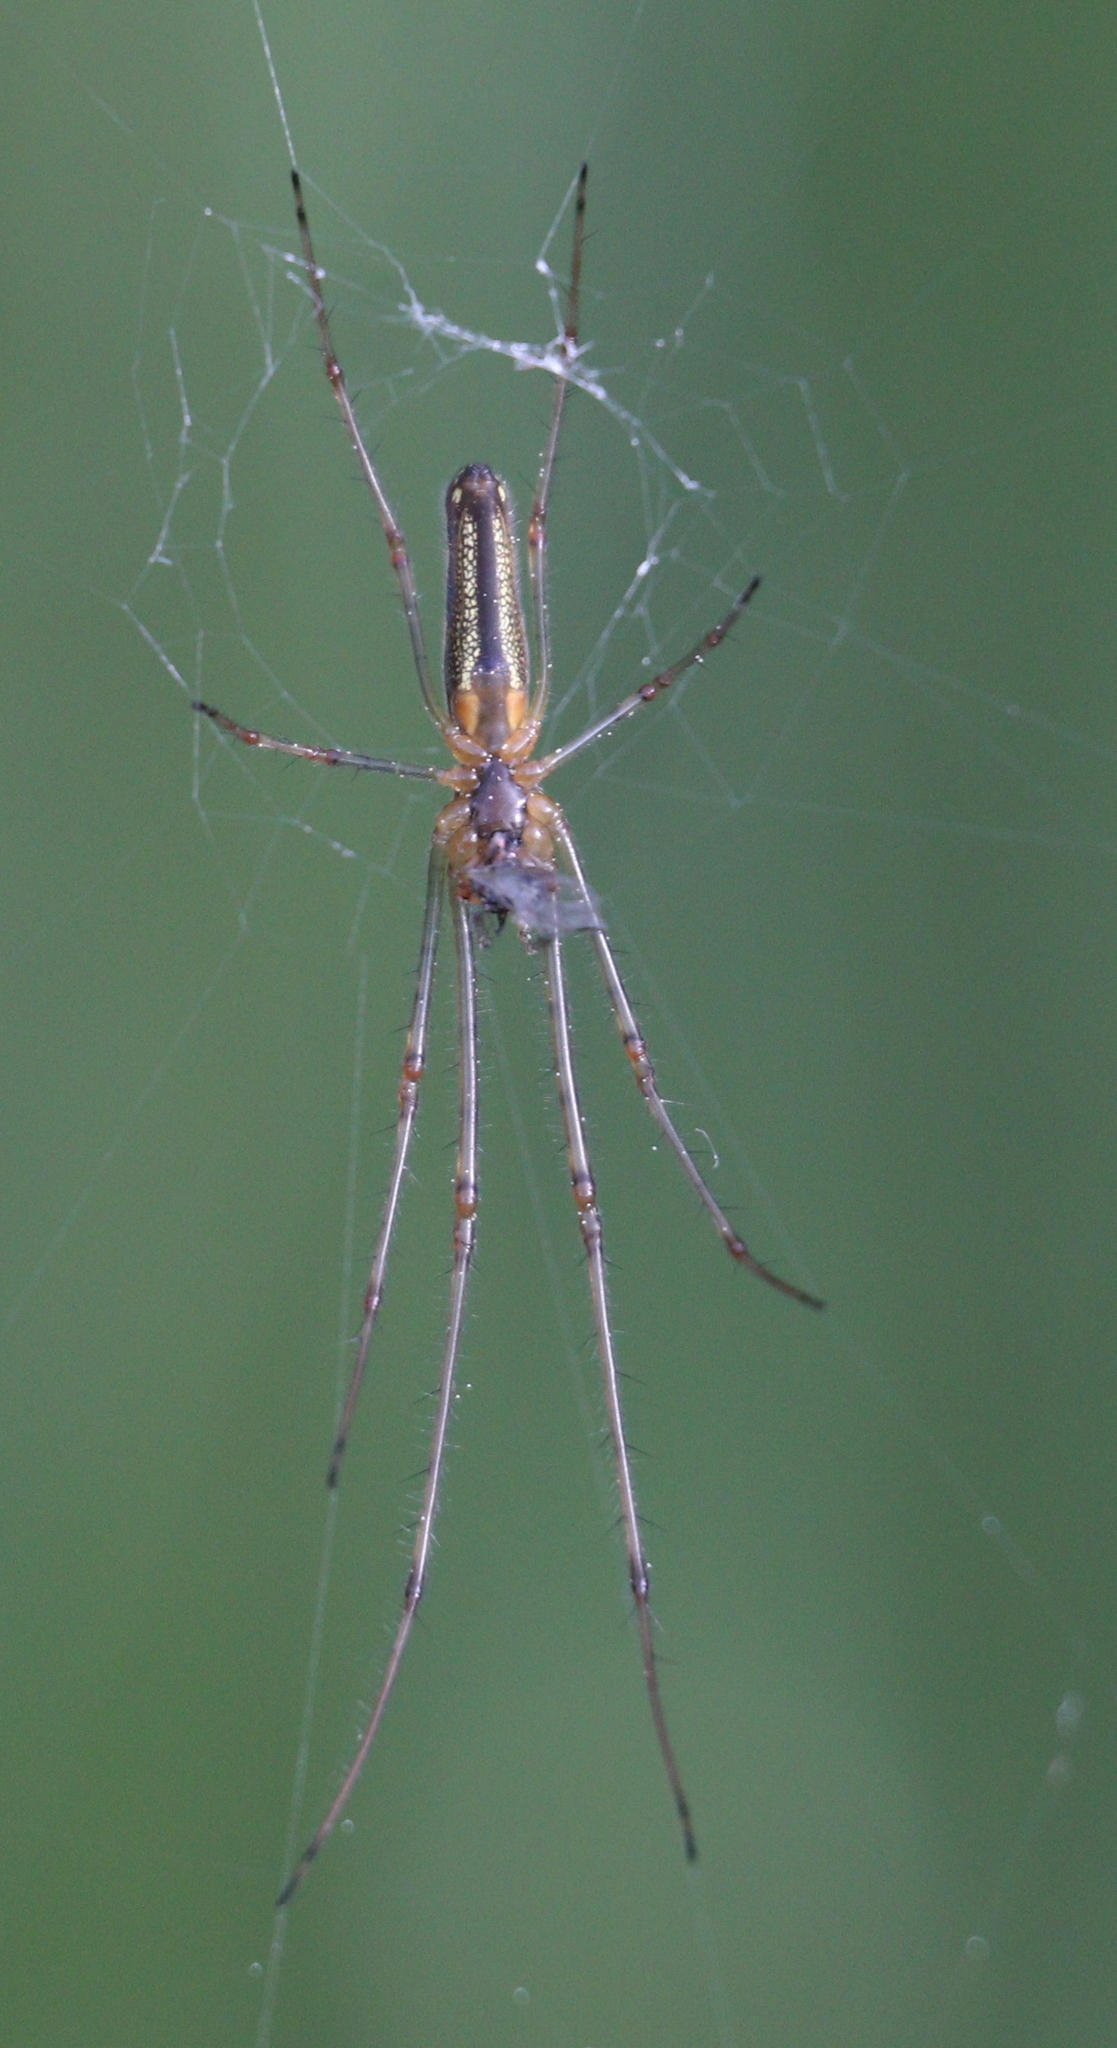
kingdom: Animalia
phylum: Arthropoda
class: Arachnida
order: Araneae
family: Tetragnathidae
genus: Tetragnatha
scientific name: Tetragnatha
